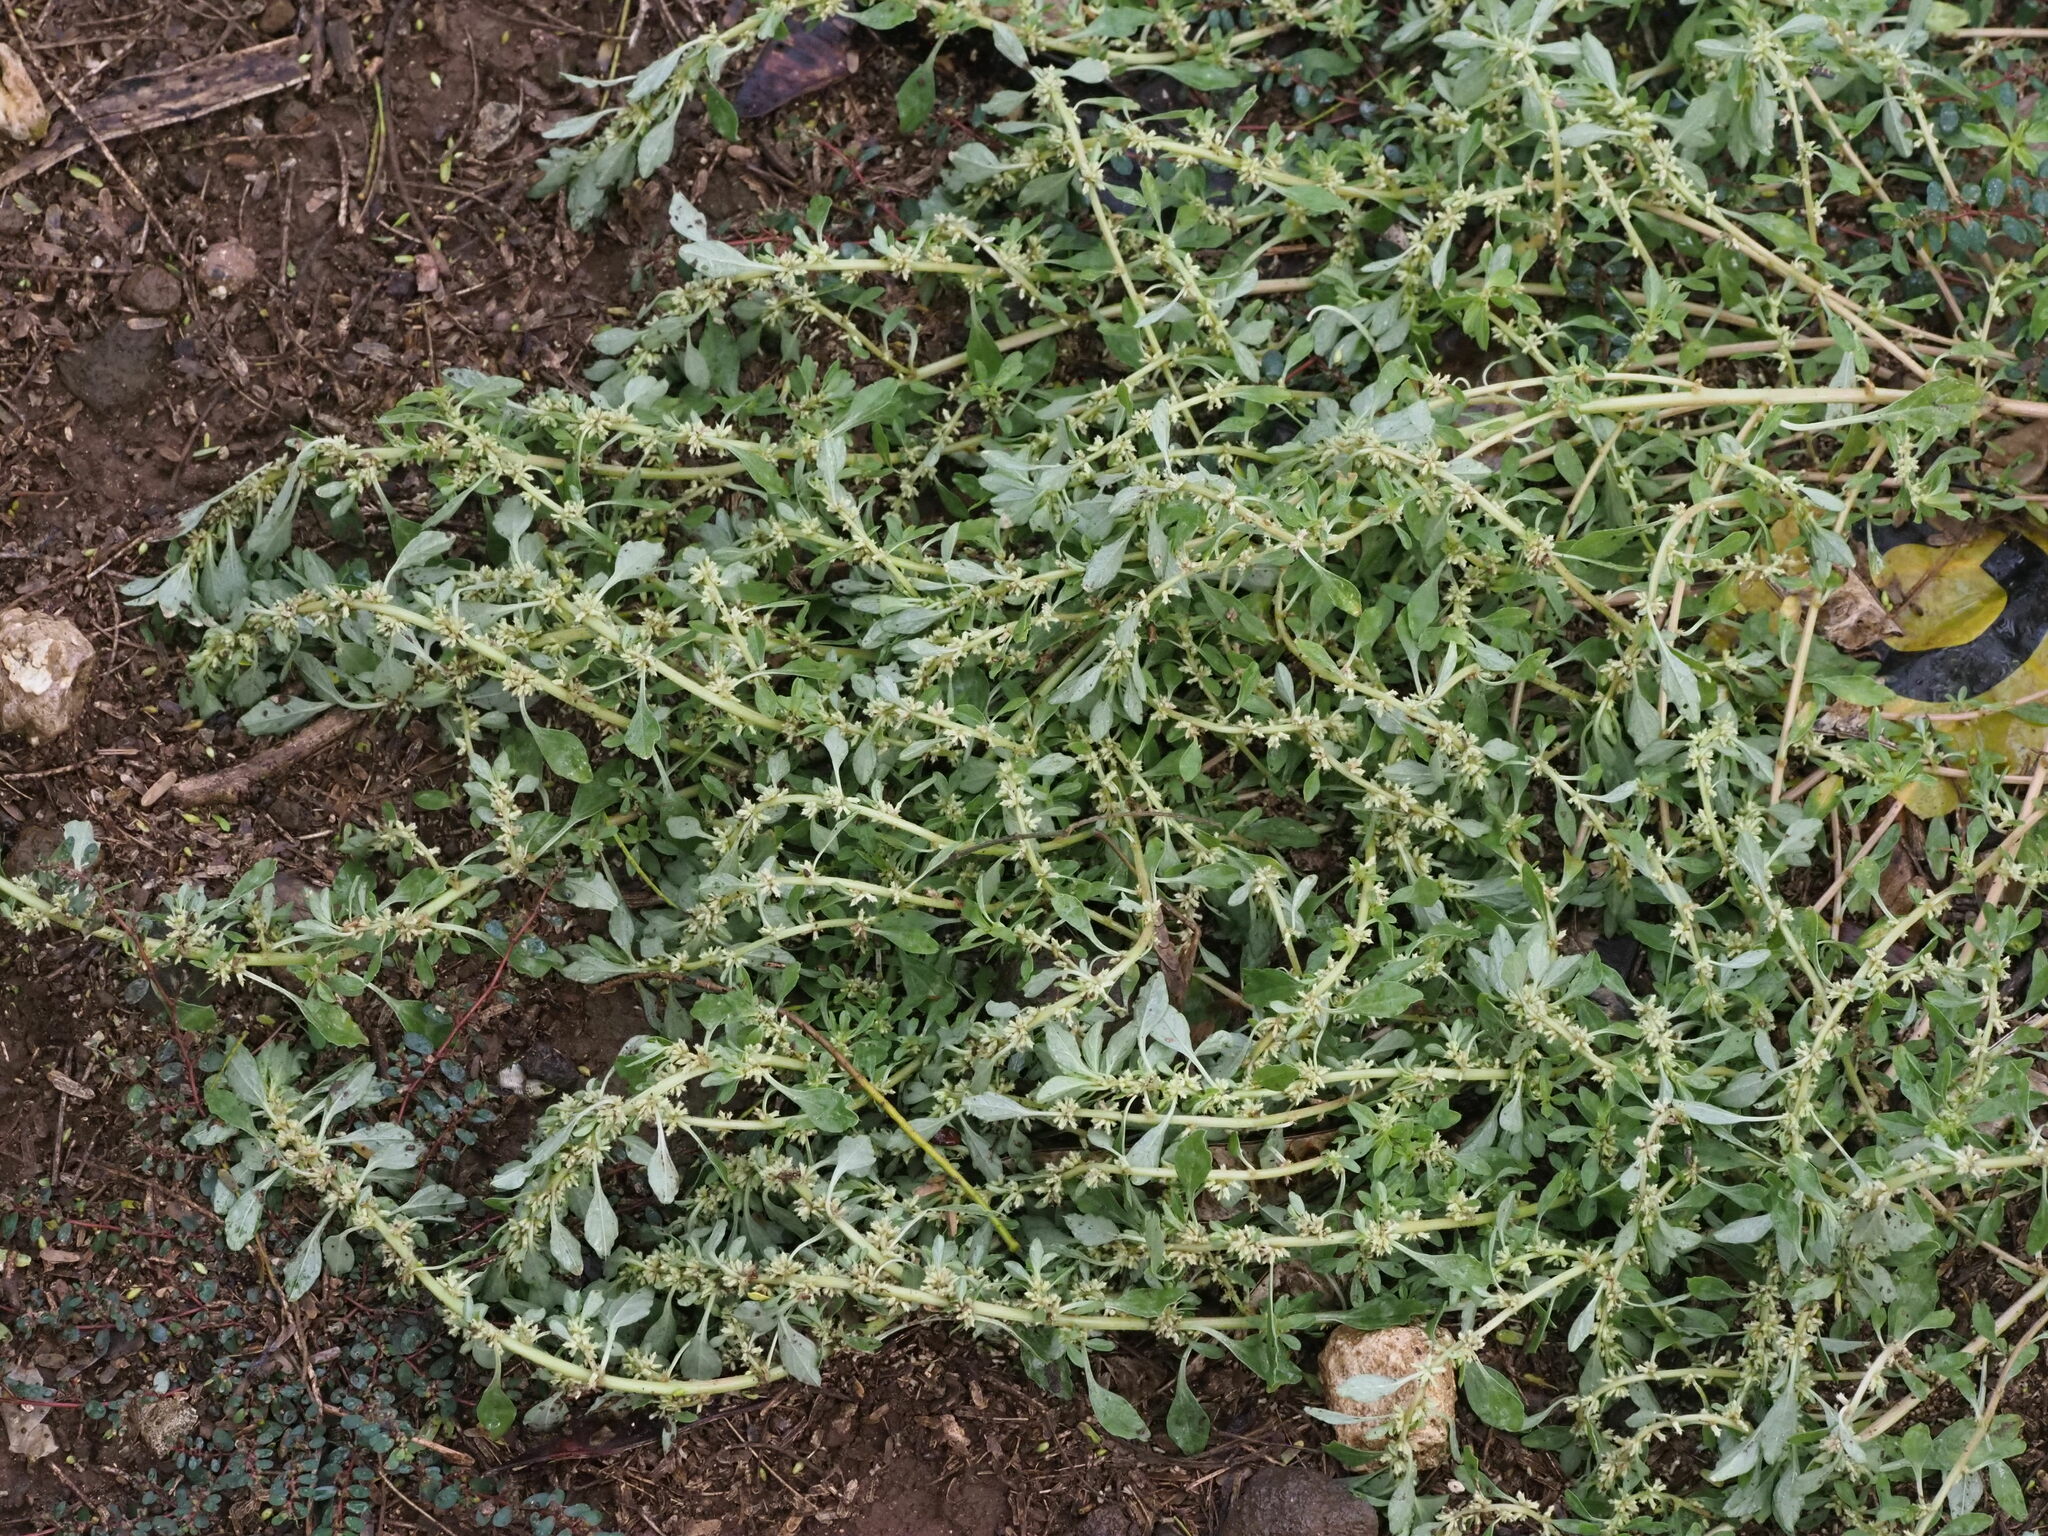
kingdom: Plantae
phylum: Tracheophyta
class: Magnoliopsida
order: Caryophyllales
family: Amaranthaceae
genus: Amaranthus
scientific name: Amaranthus polygonoides
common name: Tropical amaranth
